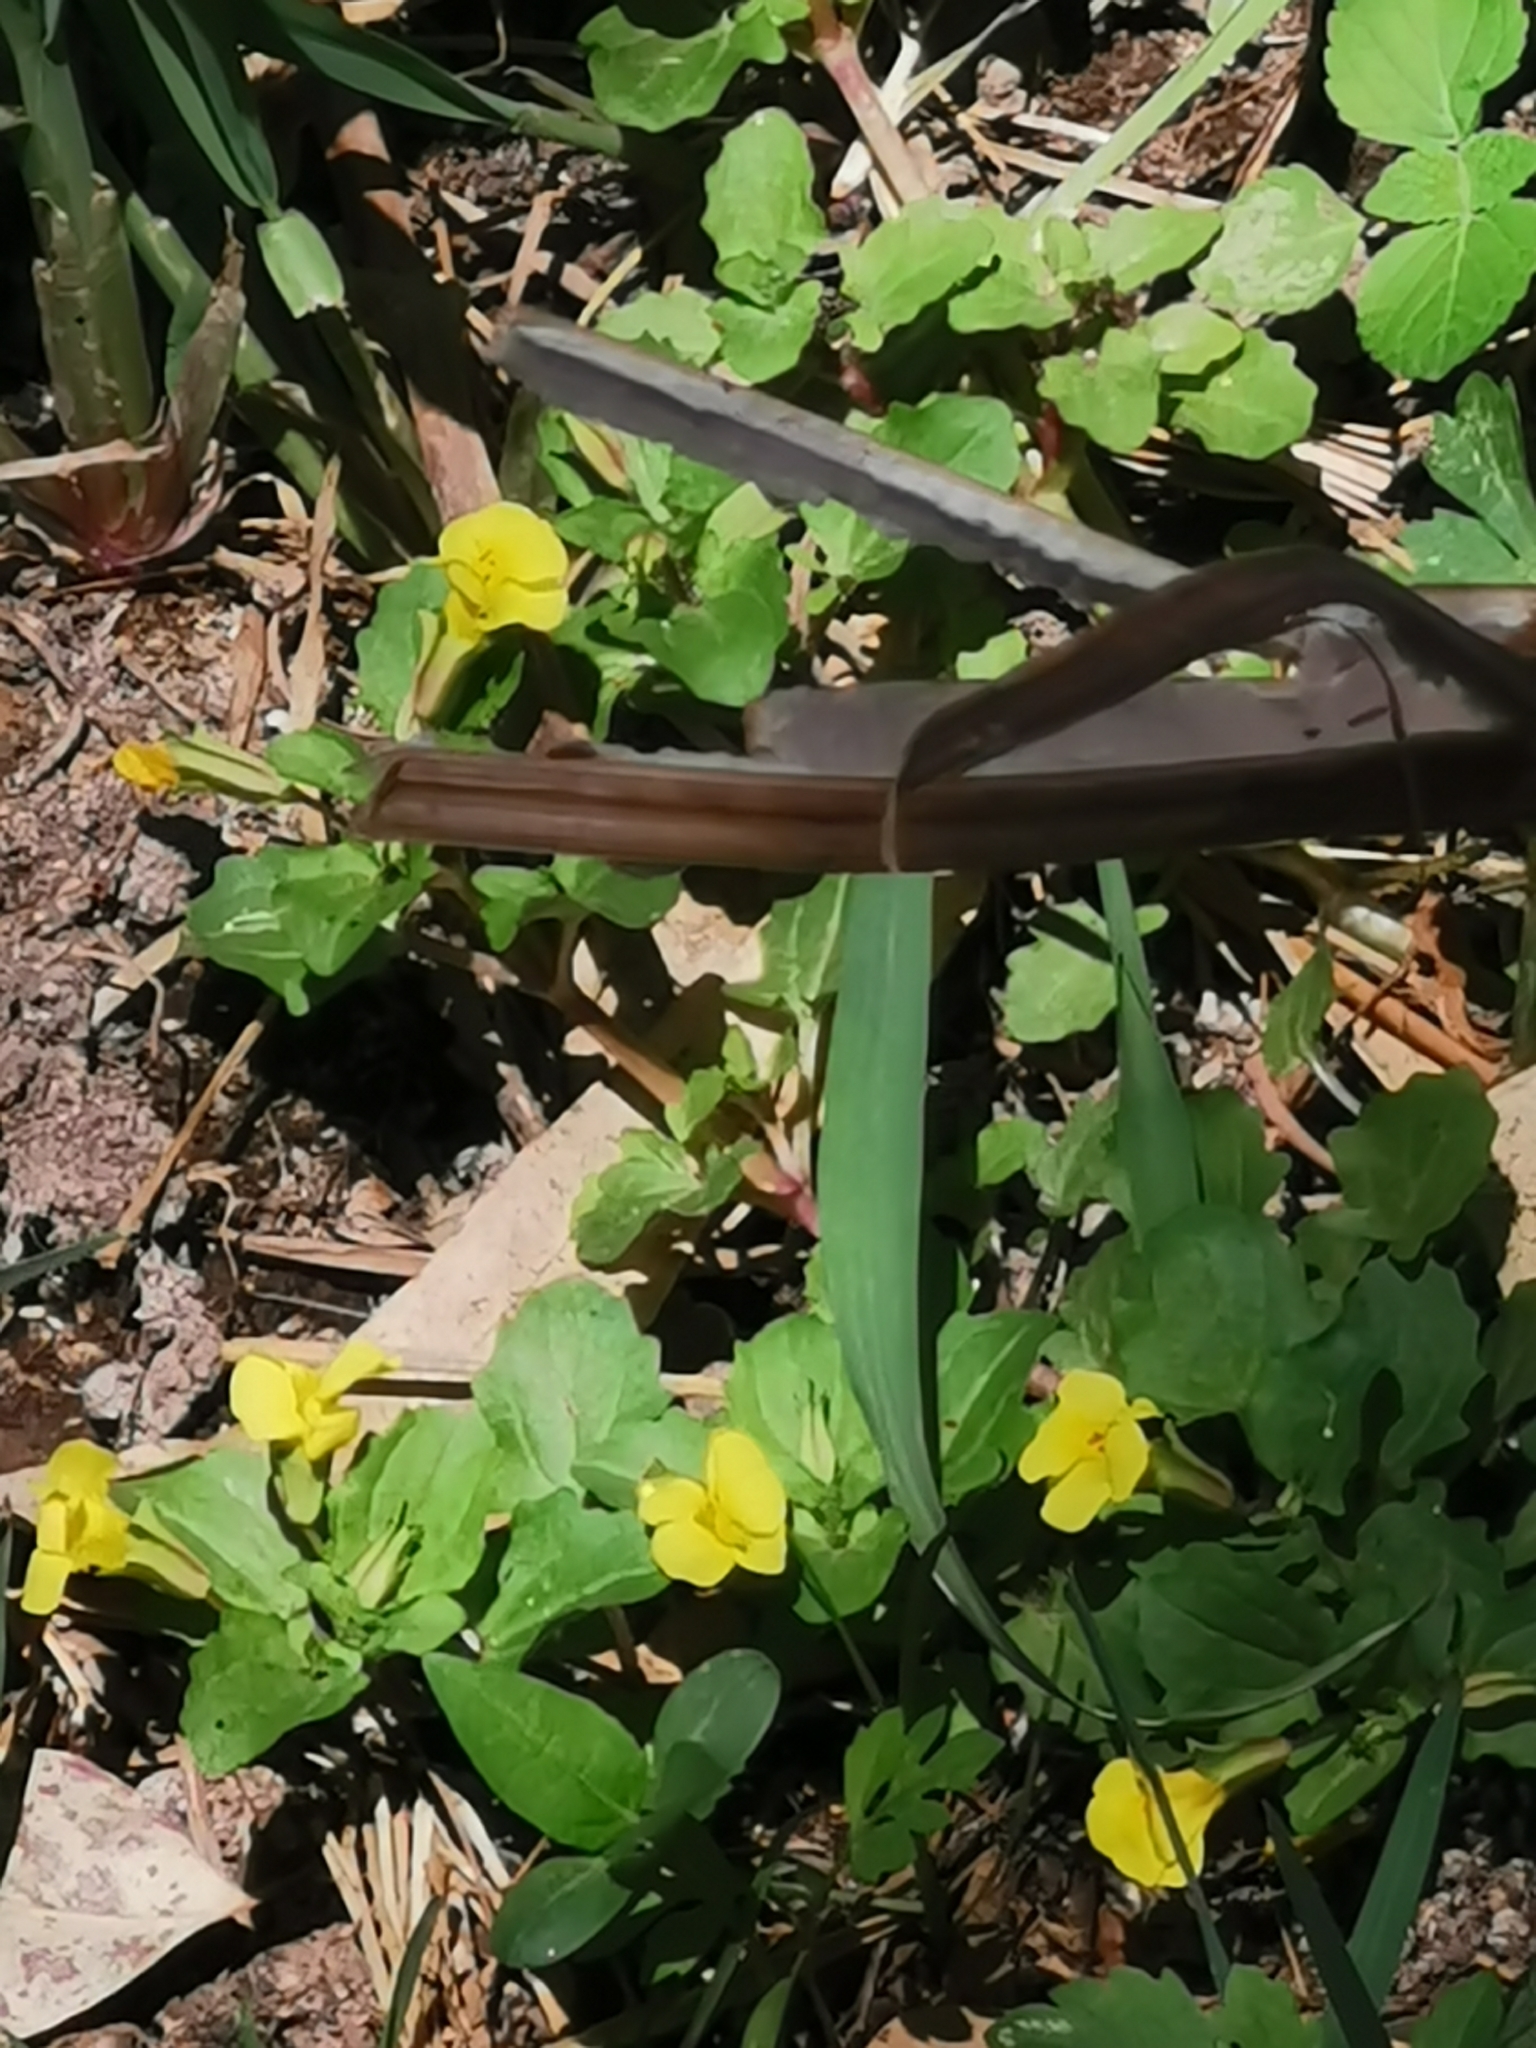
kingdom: Plantae
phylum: Tracheophyta
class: Magnoliopsida
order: Lamiales
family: Phrymaceae
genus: Erythranthe
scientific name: Erythranthe glabrata
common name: Round-leaved monkeyflower
